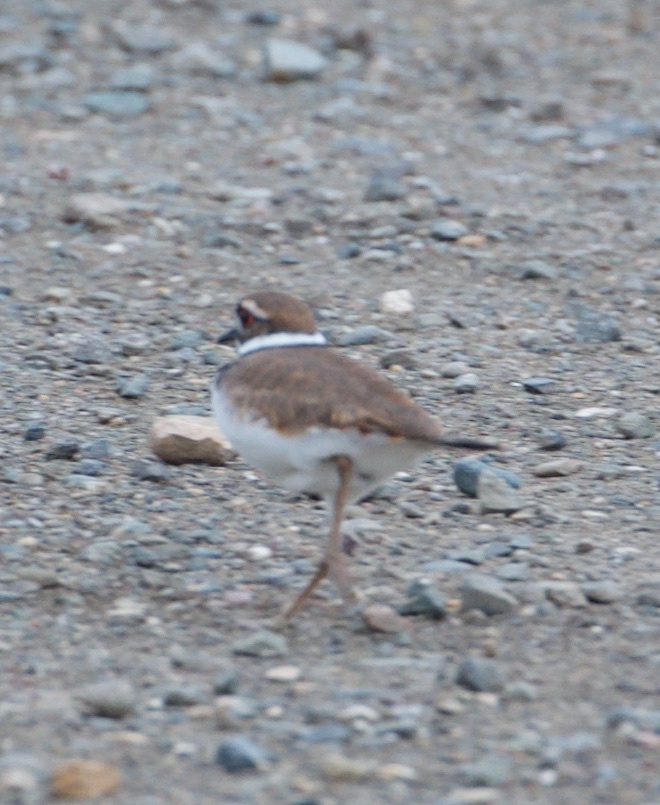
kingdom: Animalia
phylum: Chordata
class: Aves
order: Charadriiformes
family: Charadriidae
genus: Charadrius
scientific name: Charadrius vociferus
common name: Killdeer
